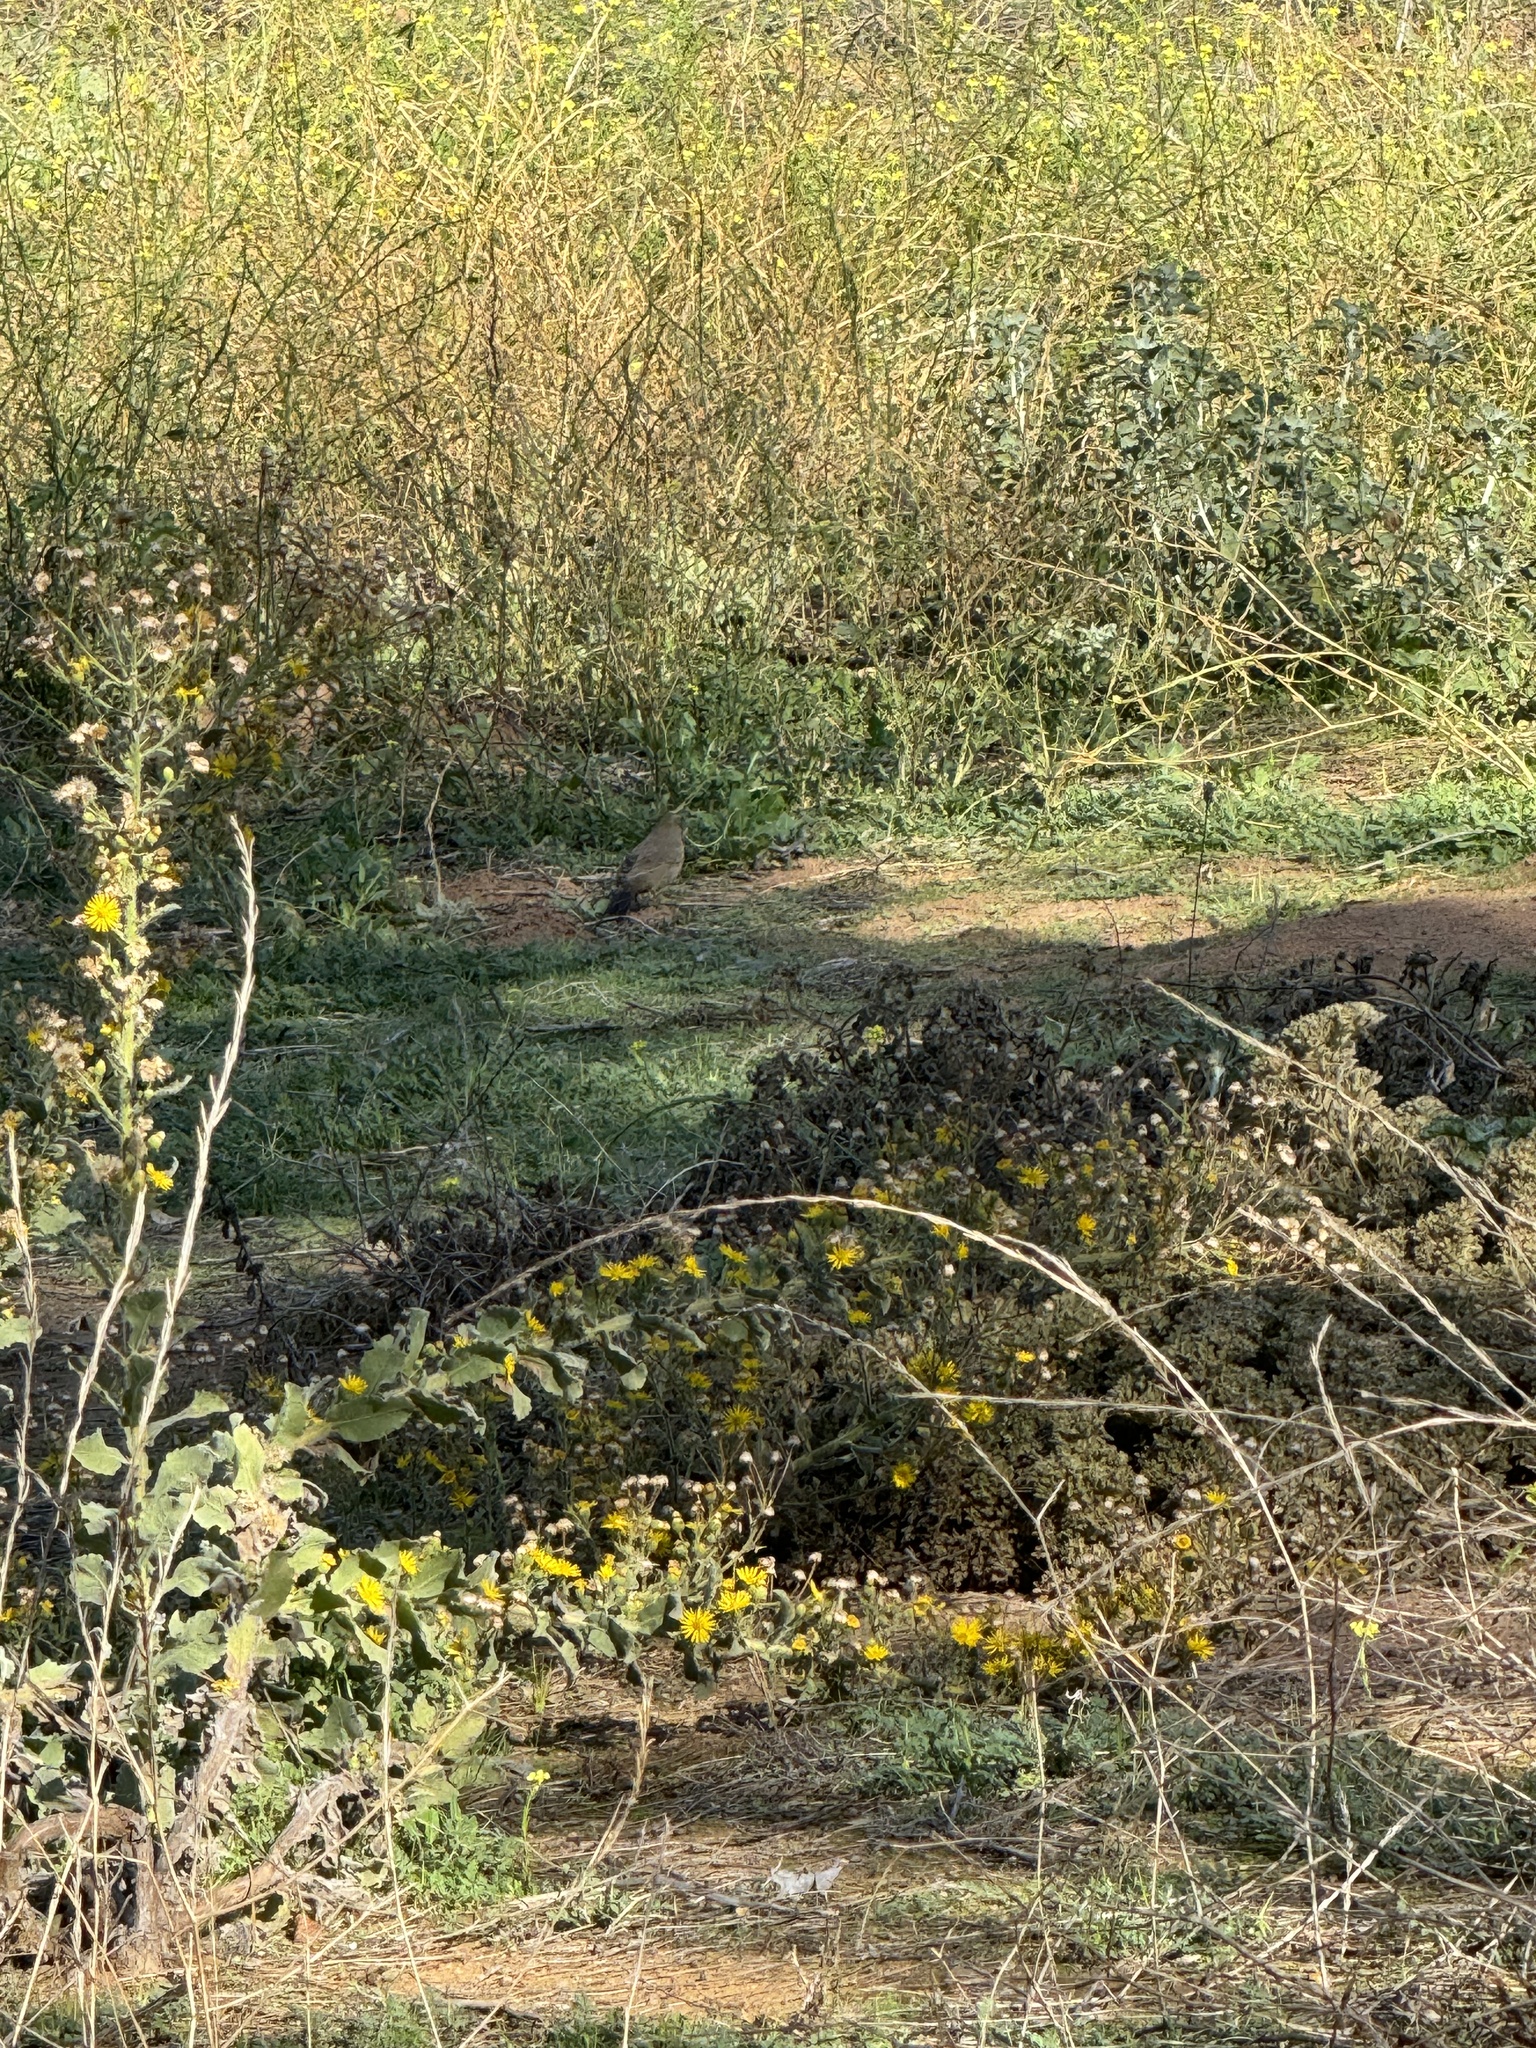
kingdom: Animalia
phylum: Chordata
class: Aves
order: Passeriformes
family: Passerellidae
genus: Melozone
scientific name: Melozone crissalis
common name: California towhee
